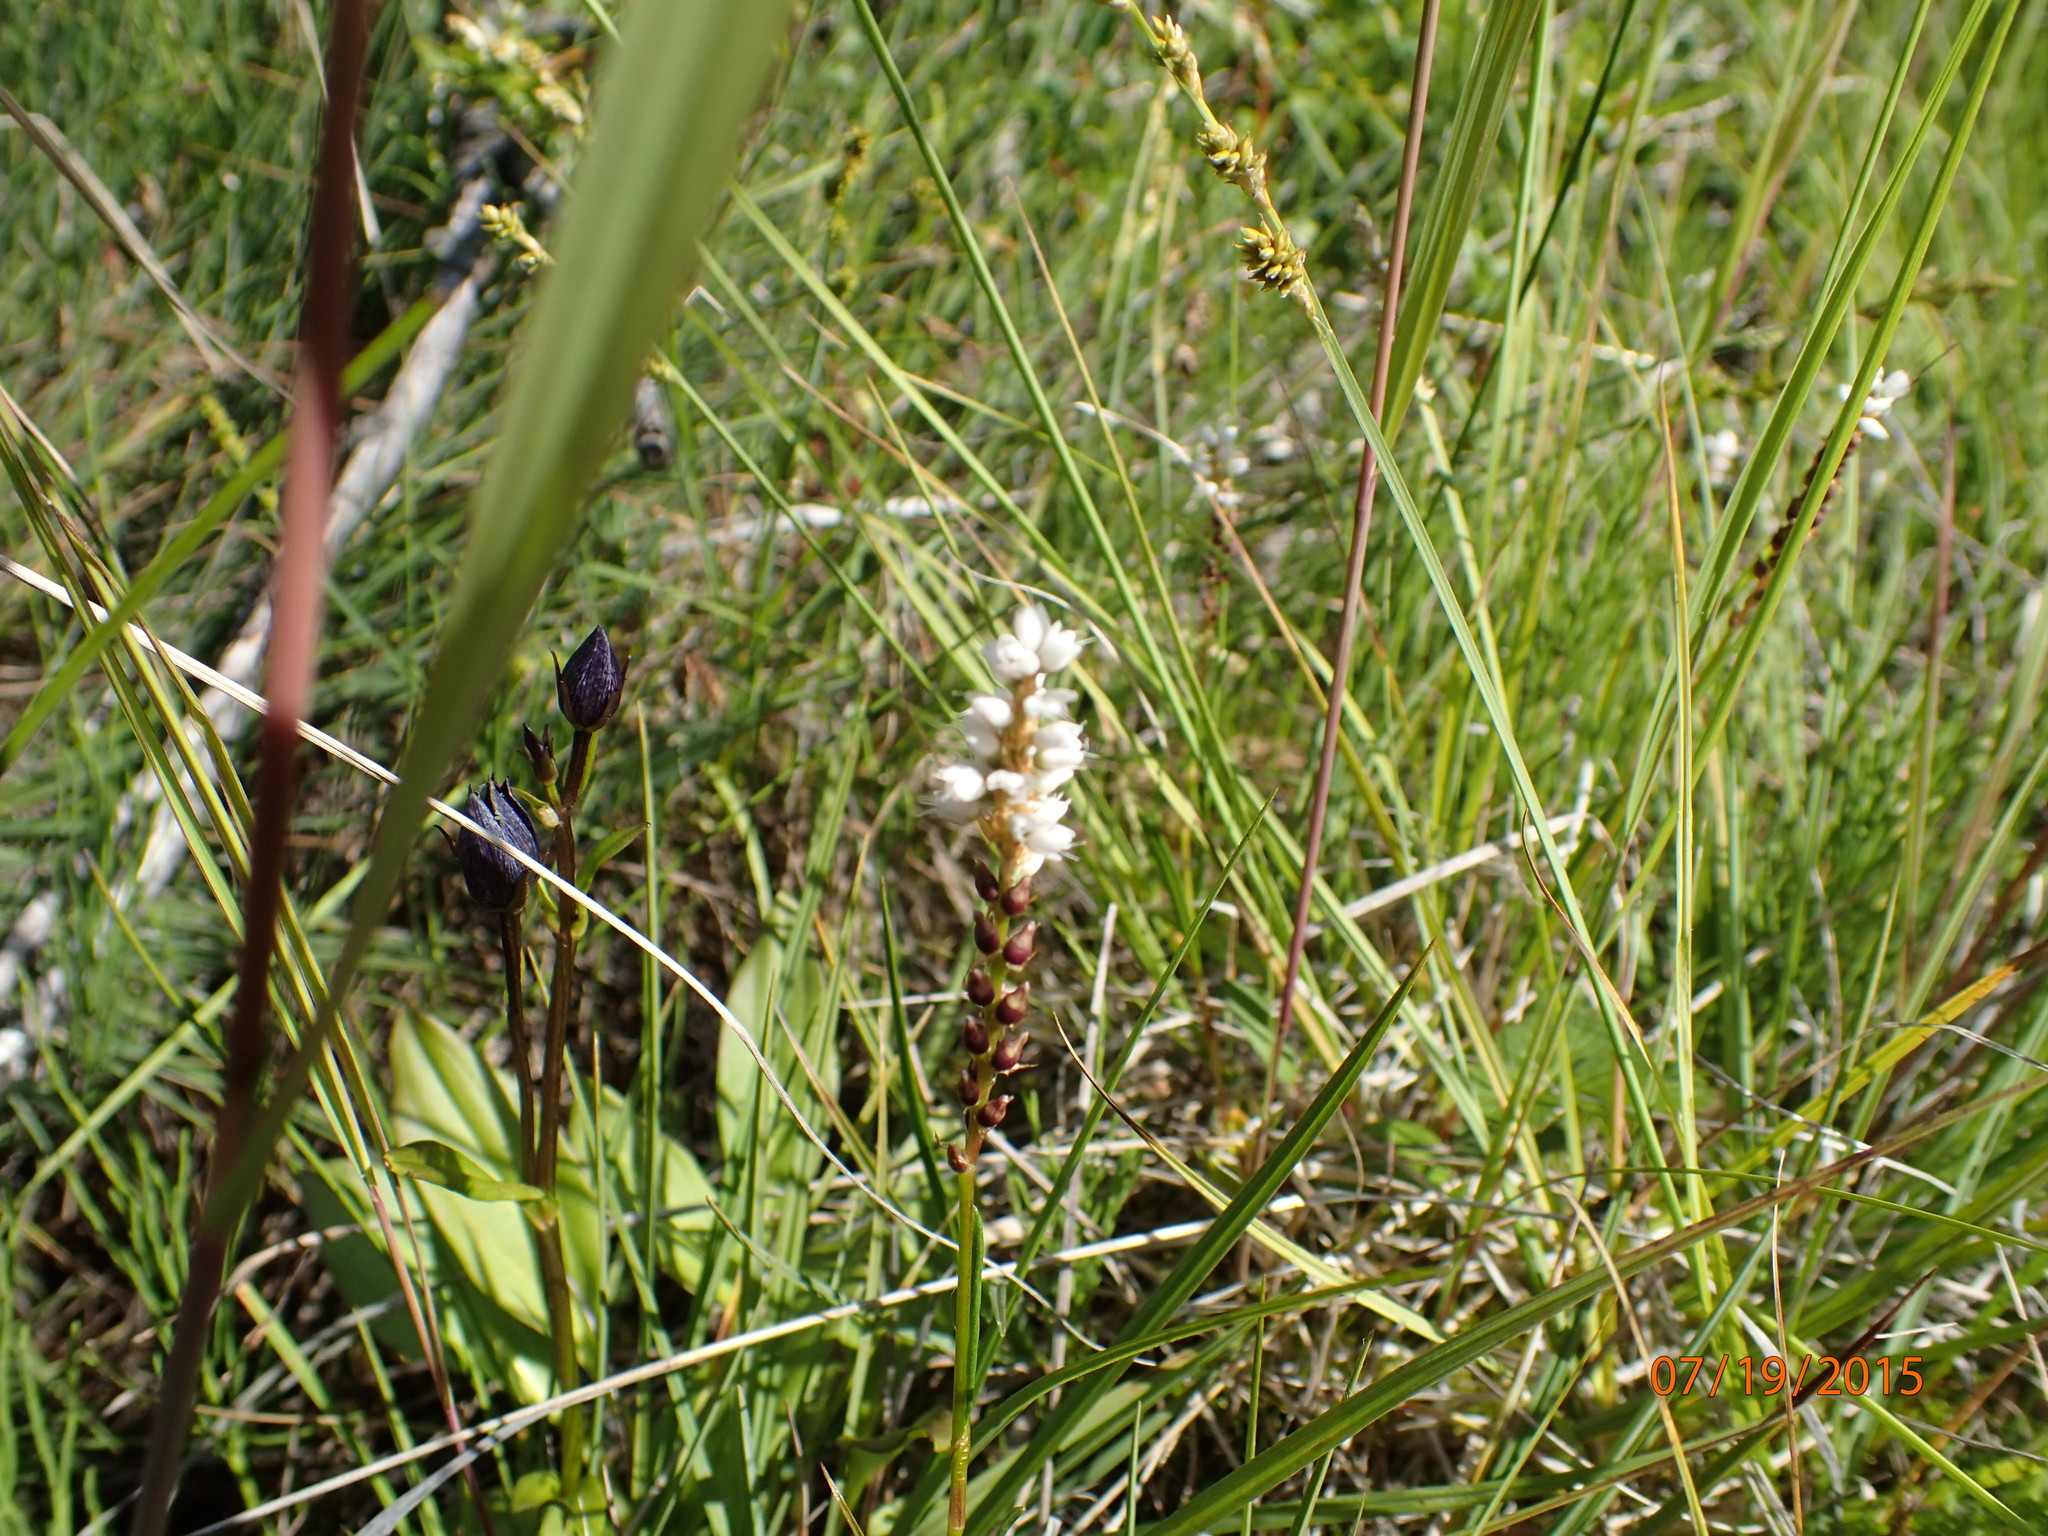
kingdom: Plantae
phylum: Tracheophyta
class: Magnoliopsida
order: Caryophyllales
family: Polygonaceae
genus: Bistorta
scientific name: Bistorta vivipara
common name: Alpine bistort
